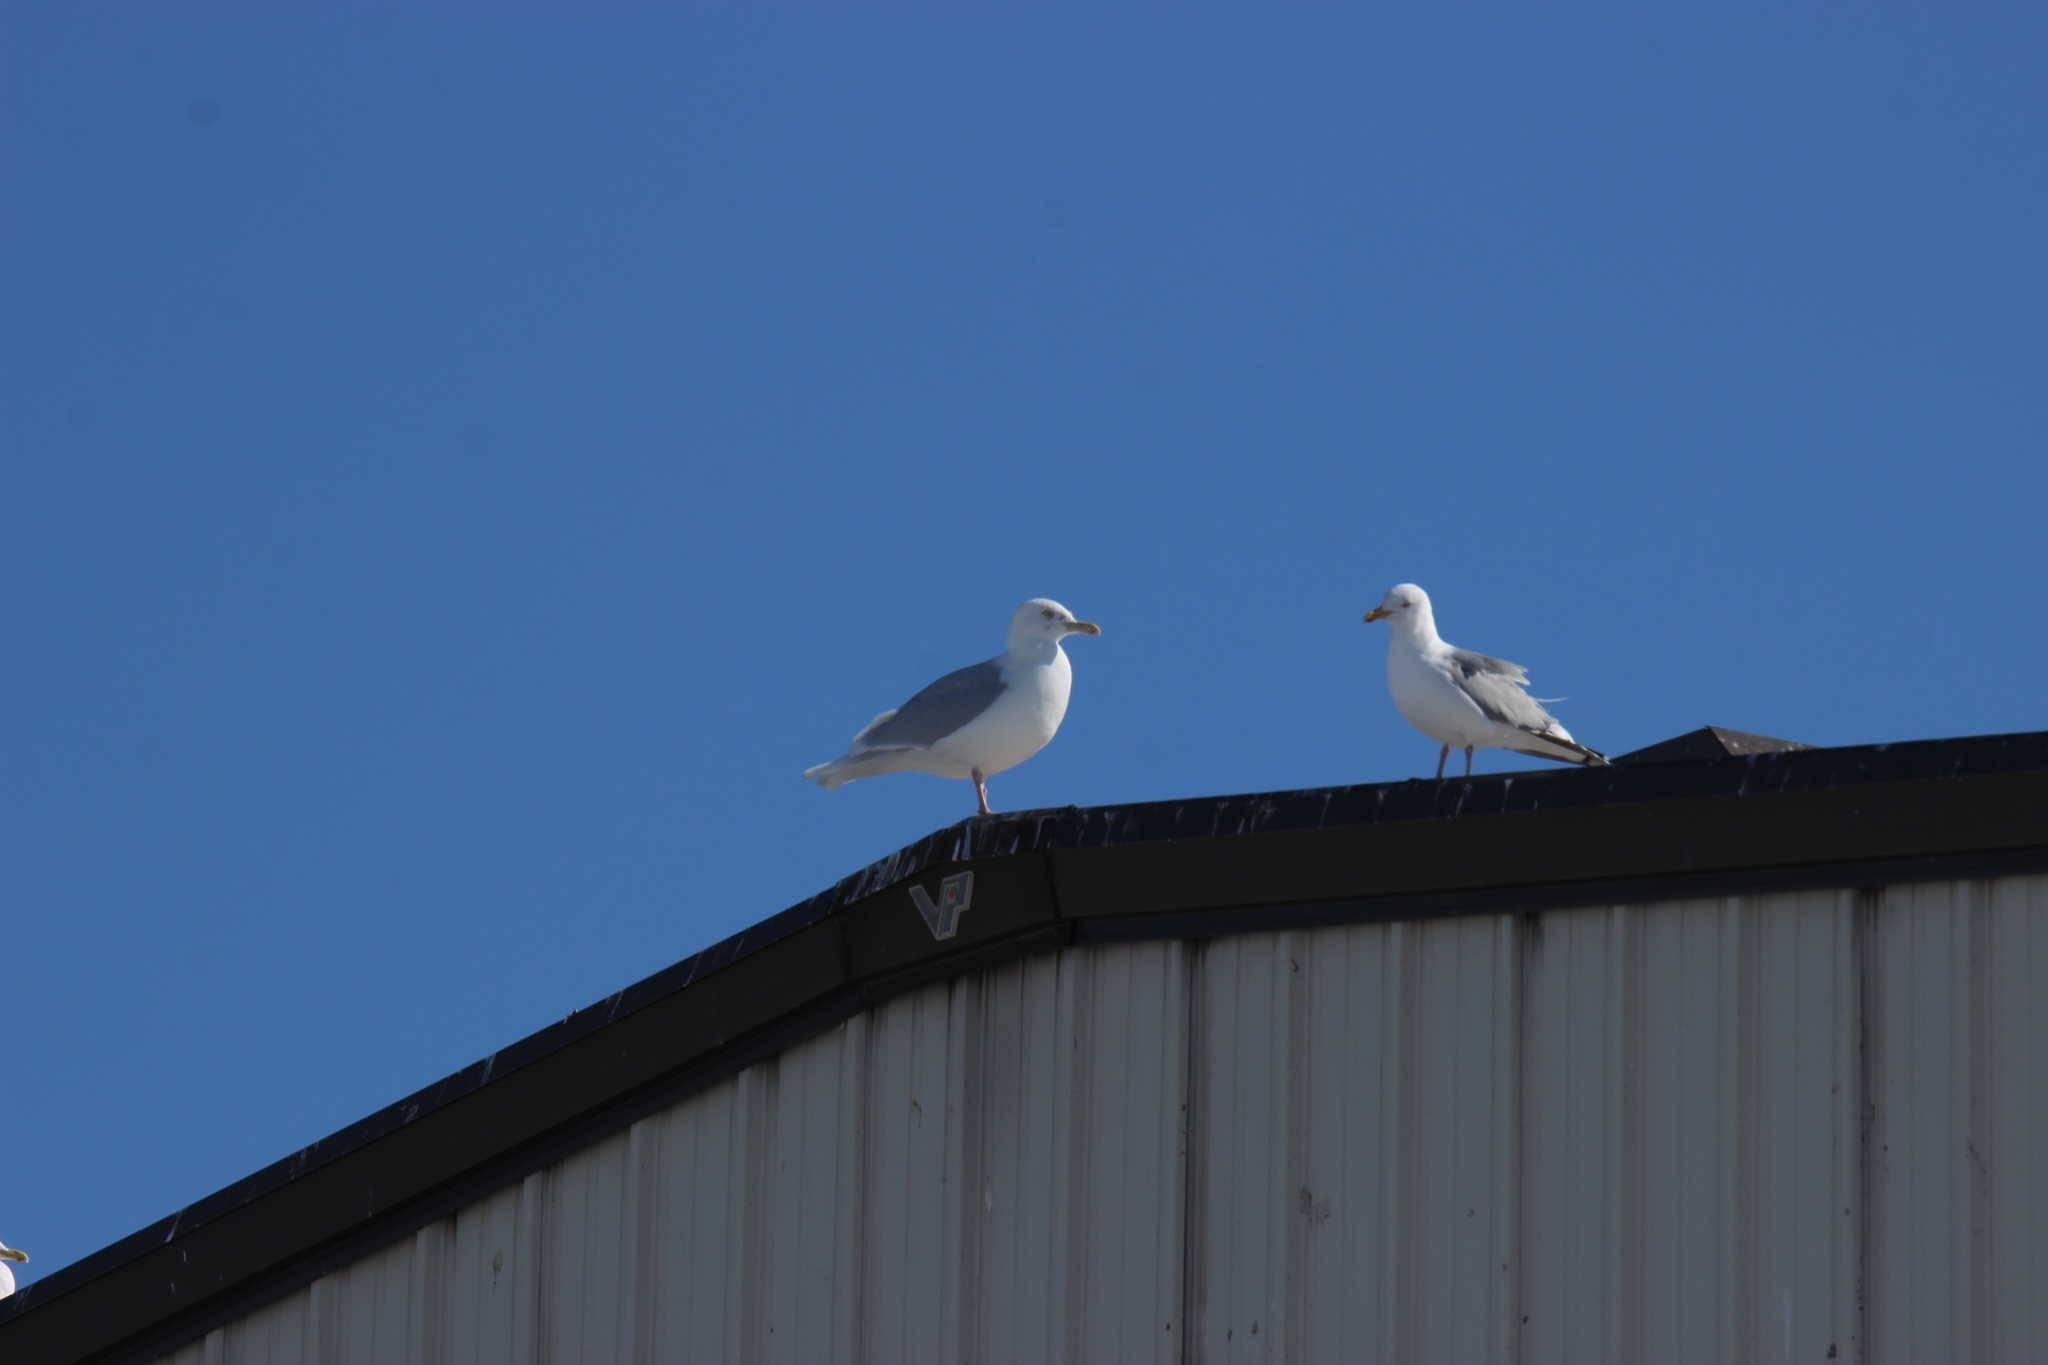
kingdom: Animalia
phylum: Chordata
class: Aves
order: Charadriiformes
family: Laridae
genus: Larus
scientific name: Larus glaucoides
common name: Iceland gull
